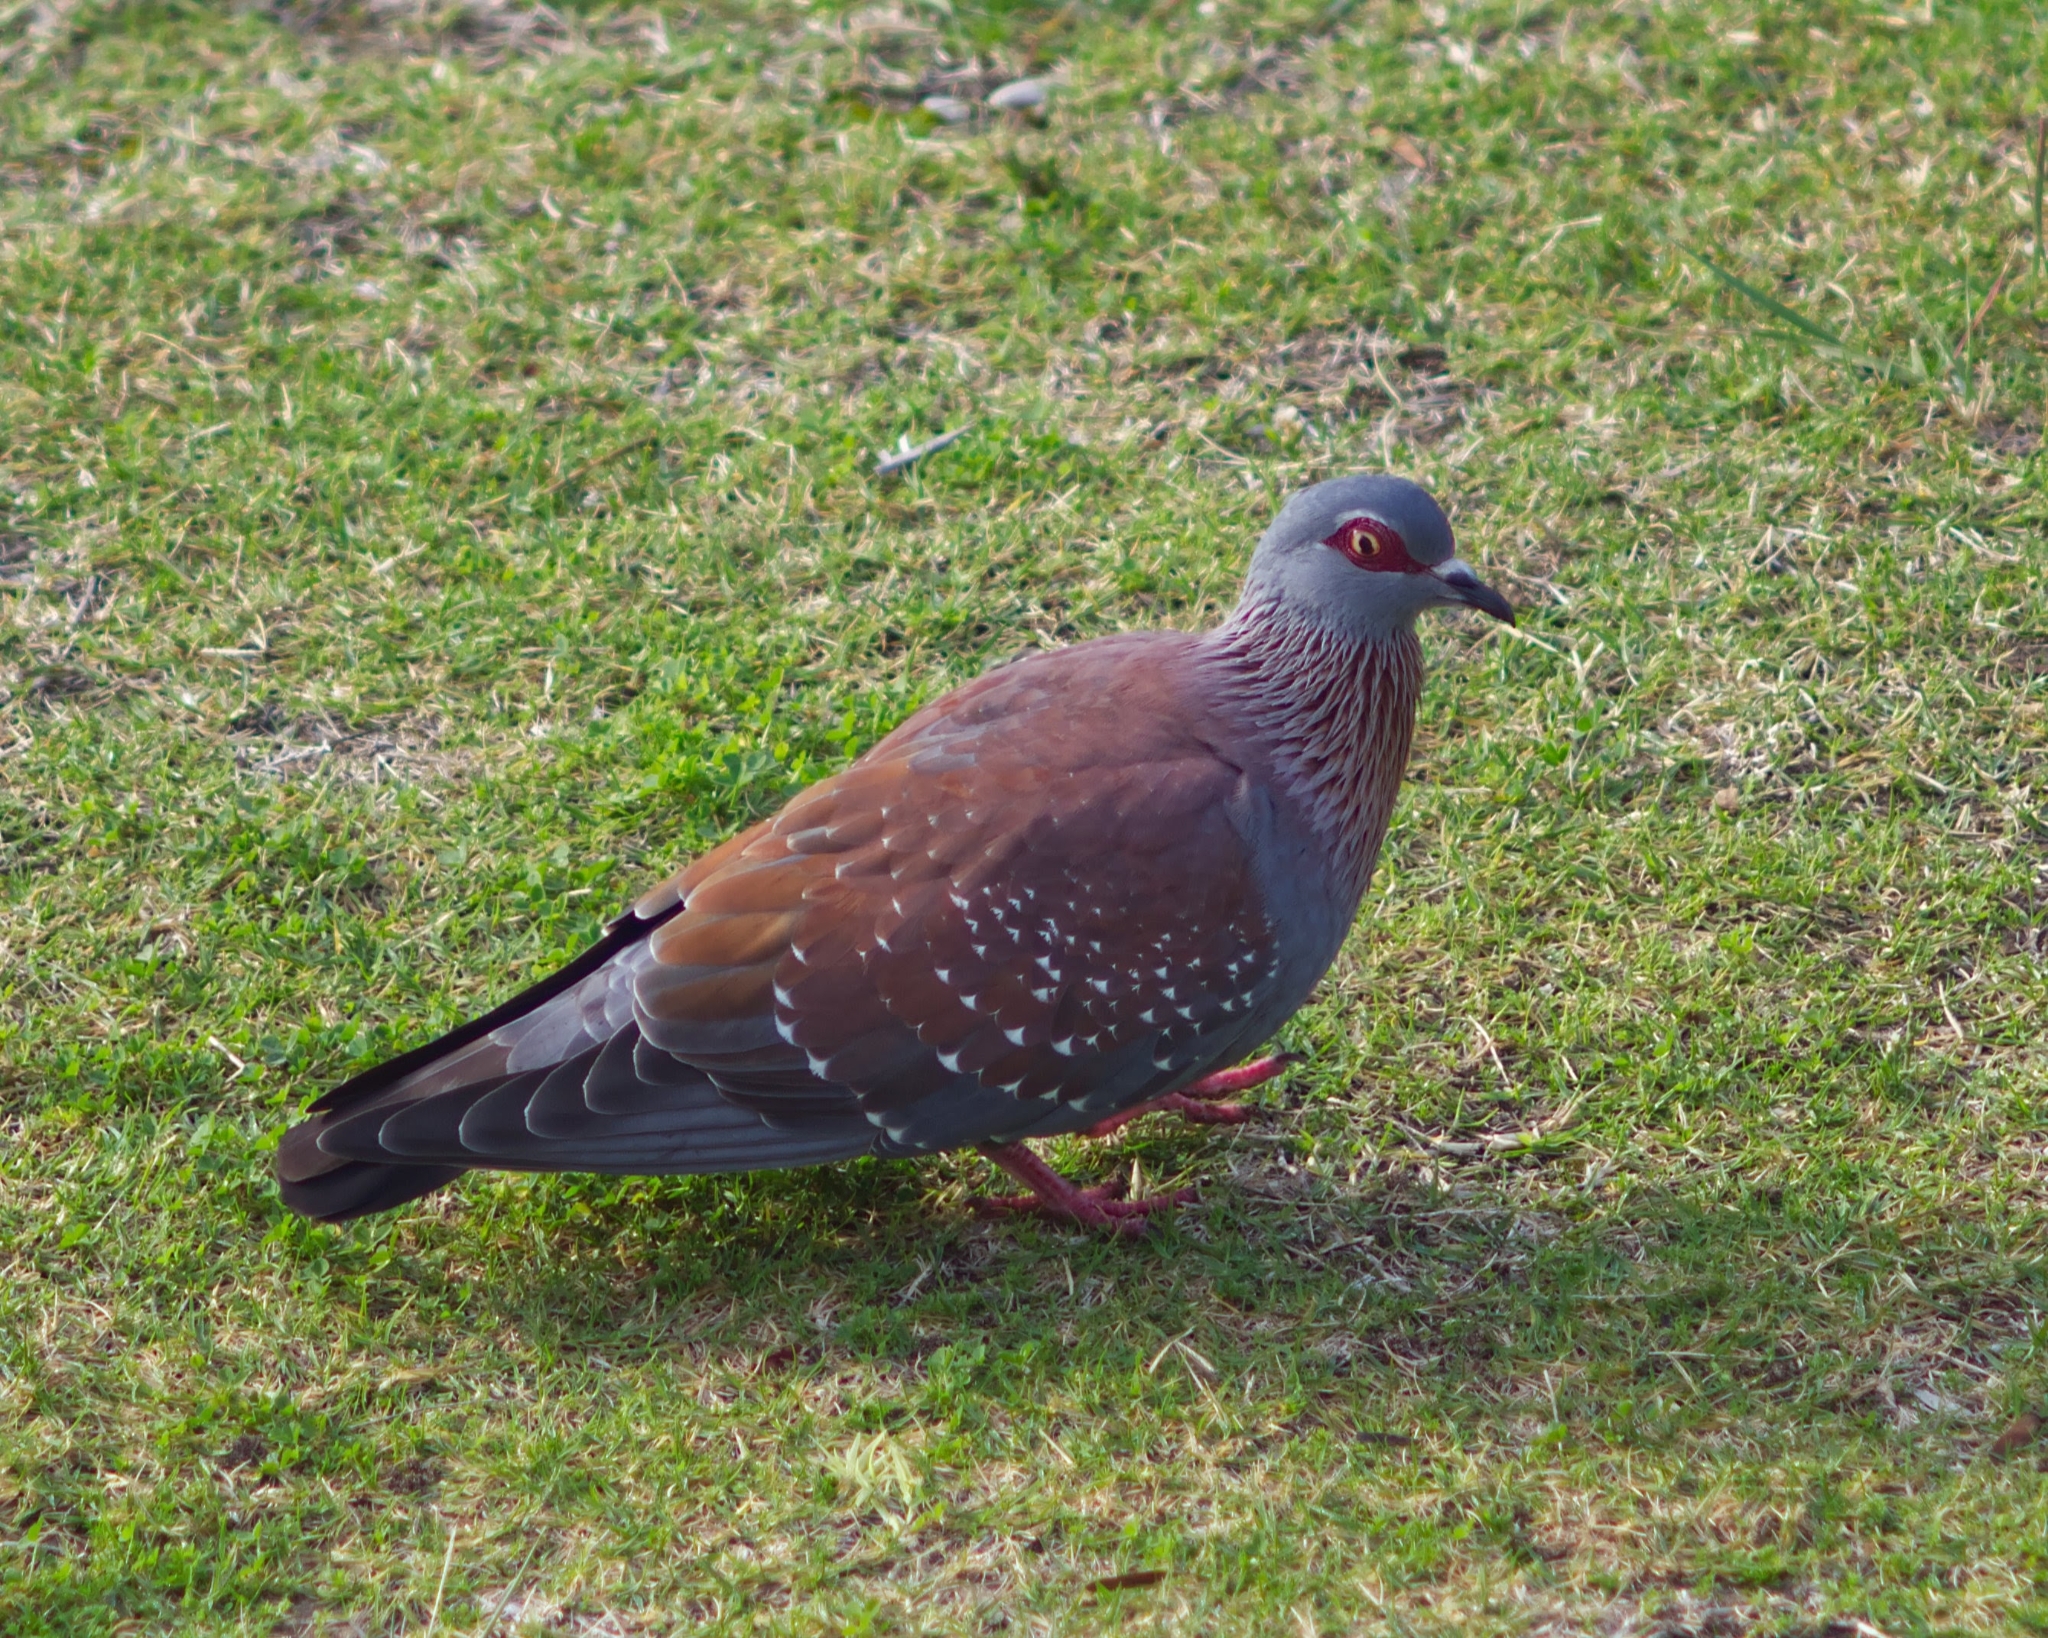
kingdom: Animalia
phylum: Chordata
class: Aves
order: Columbiformes
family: Columbidae
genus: Columba
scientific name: Columba guinea
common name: Speckled pigeon
